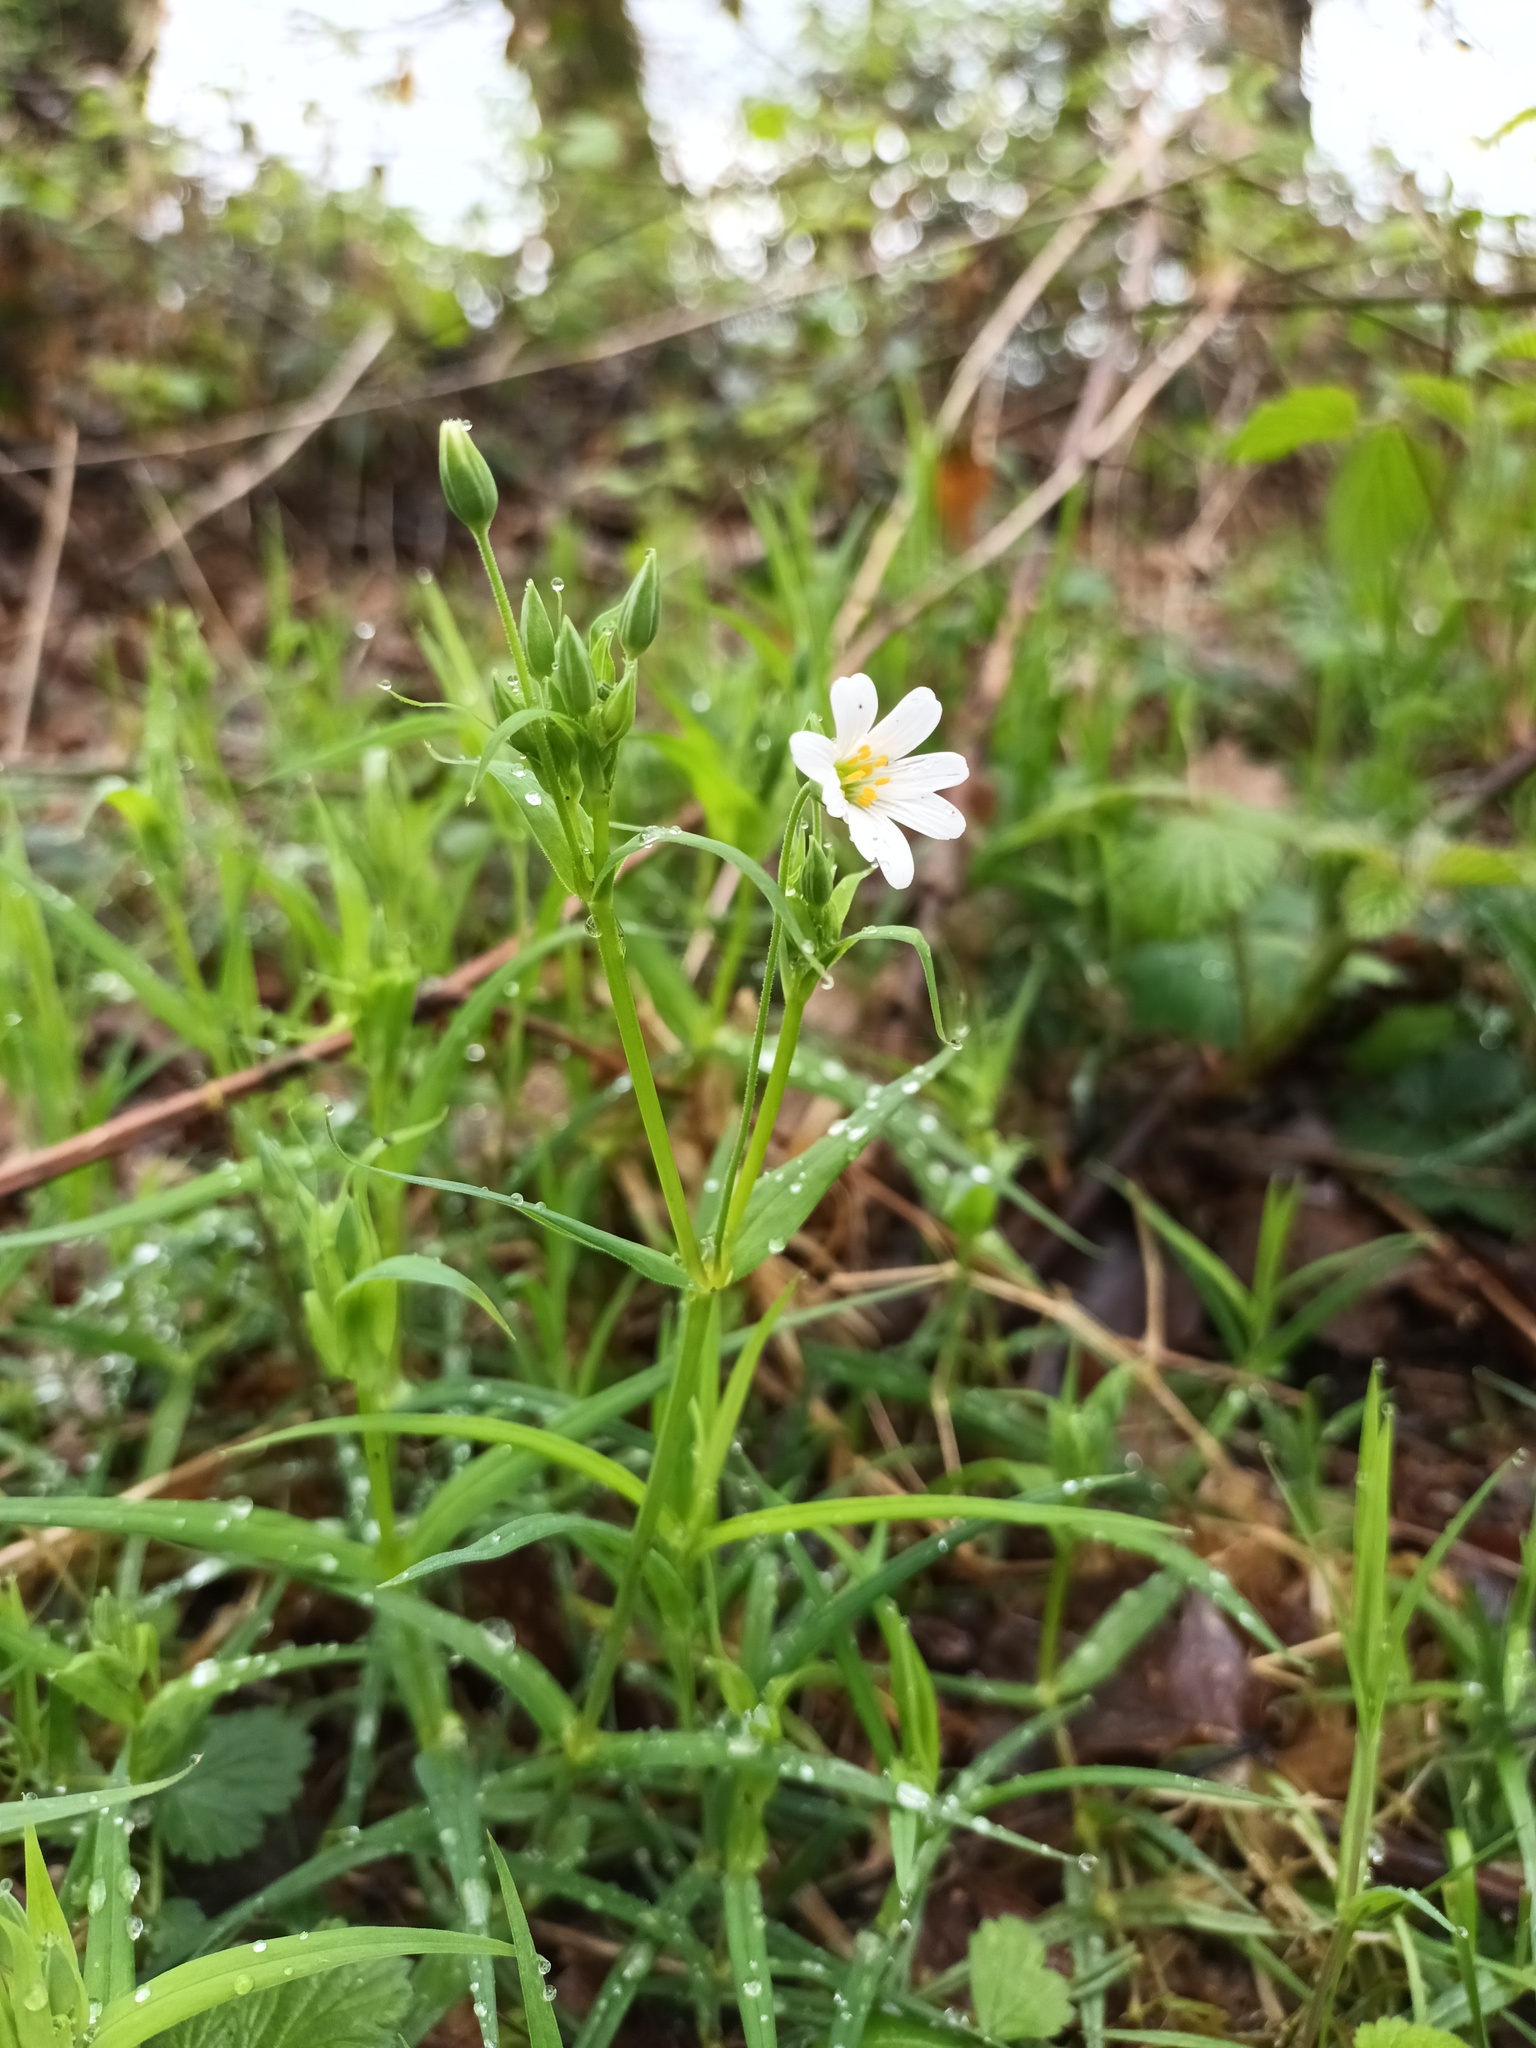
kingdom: Plantae
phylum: Tracheophyta
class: Magnoliopsida
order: Caryophyllales
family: Caryophyllaceae
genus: Rabelera
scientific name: Rabelera holostea
